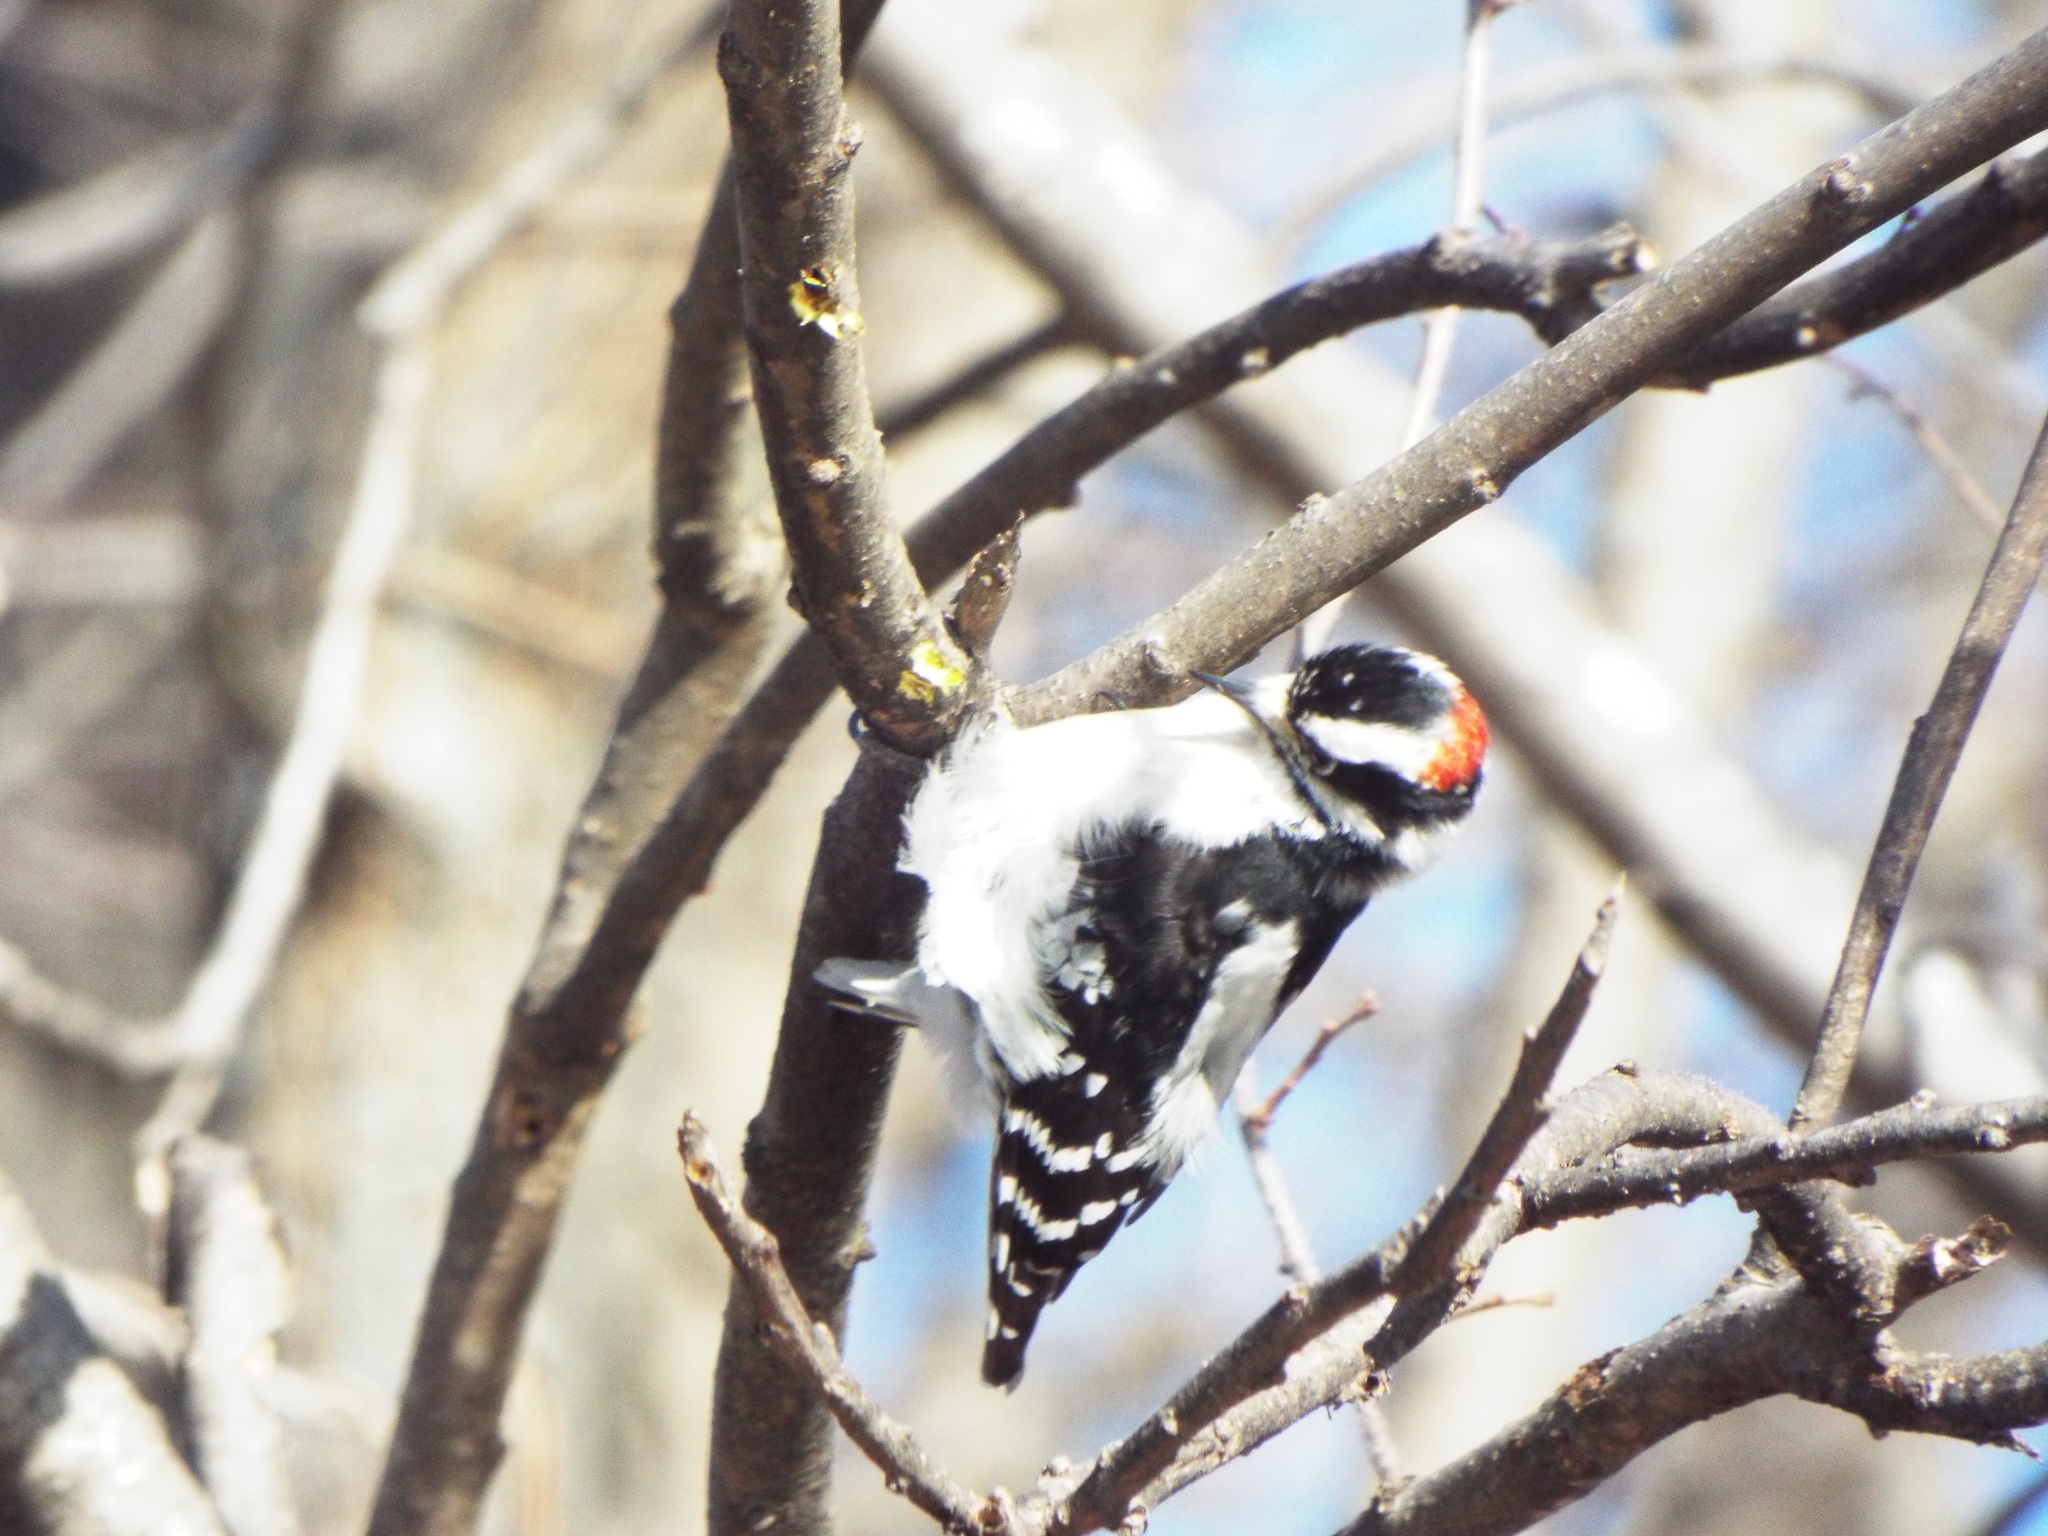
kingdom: Animalia
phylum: Chordata
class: Aves
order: Piciformes
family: Picidae
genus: Dryobates
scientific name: Dryobates pubescens
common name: Downy woodpecker
